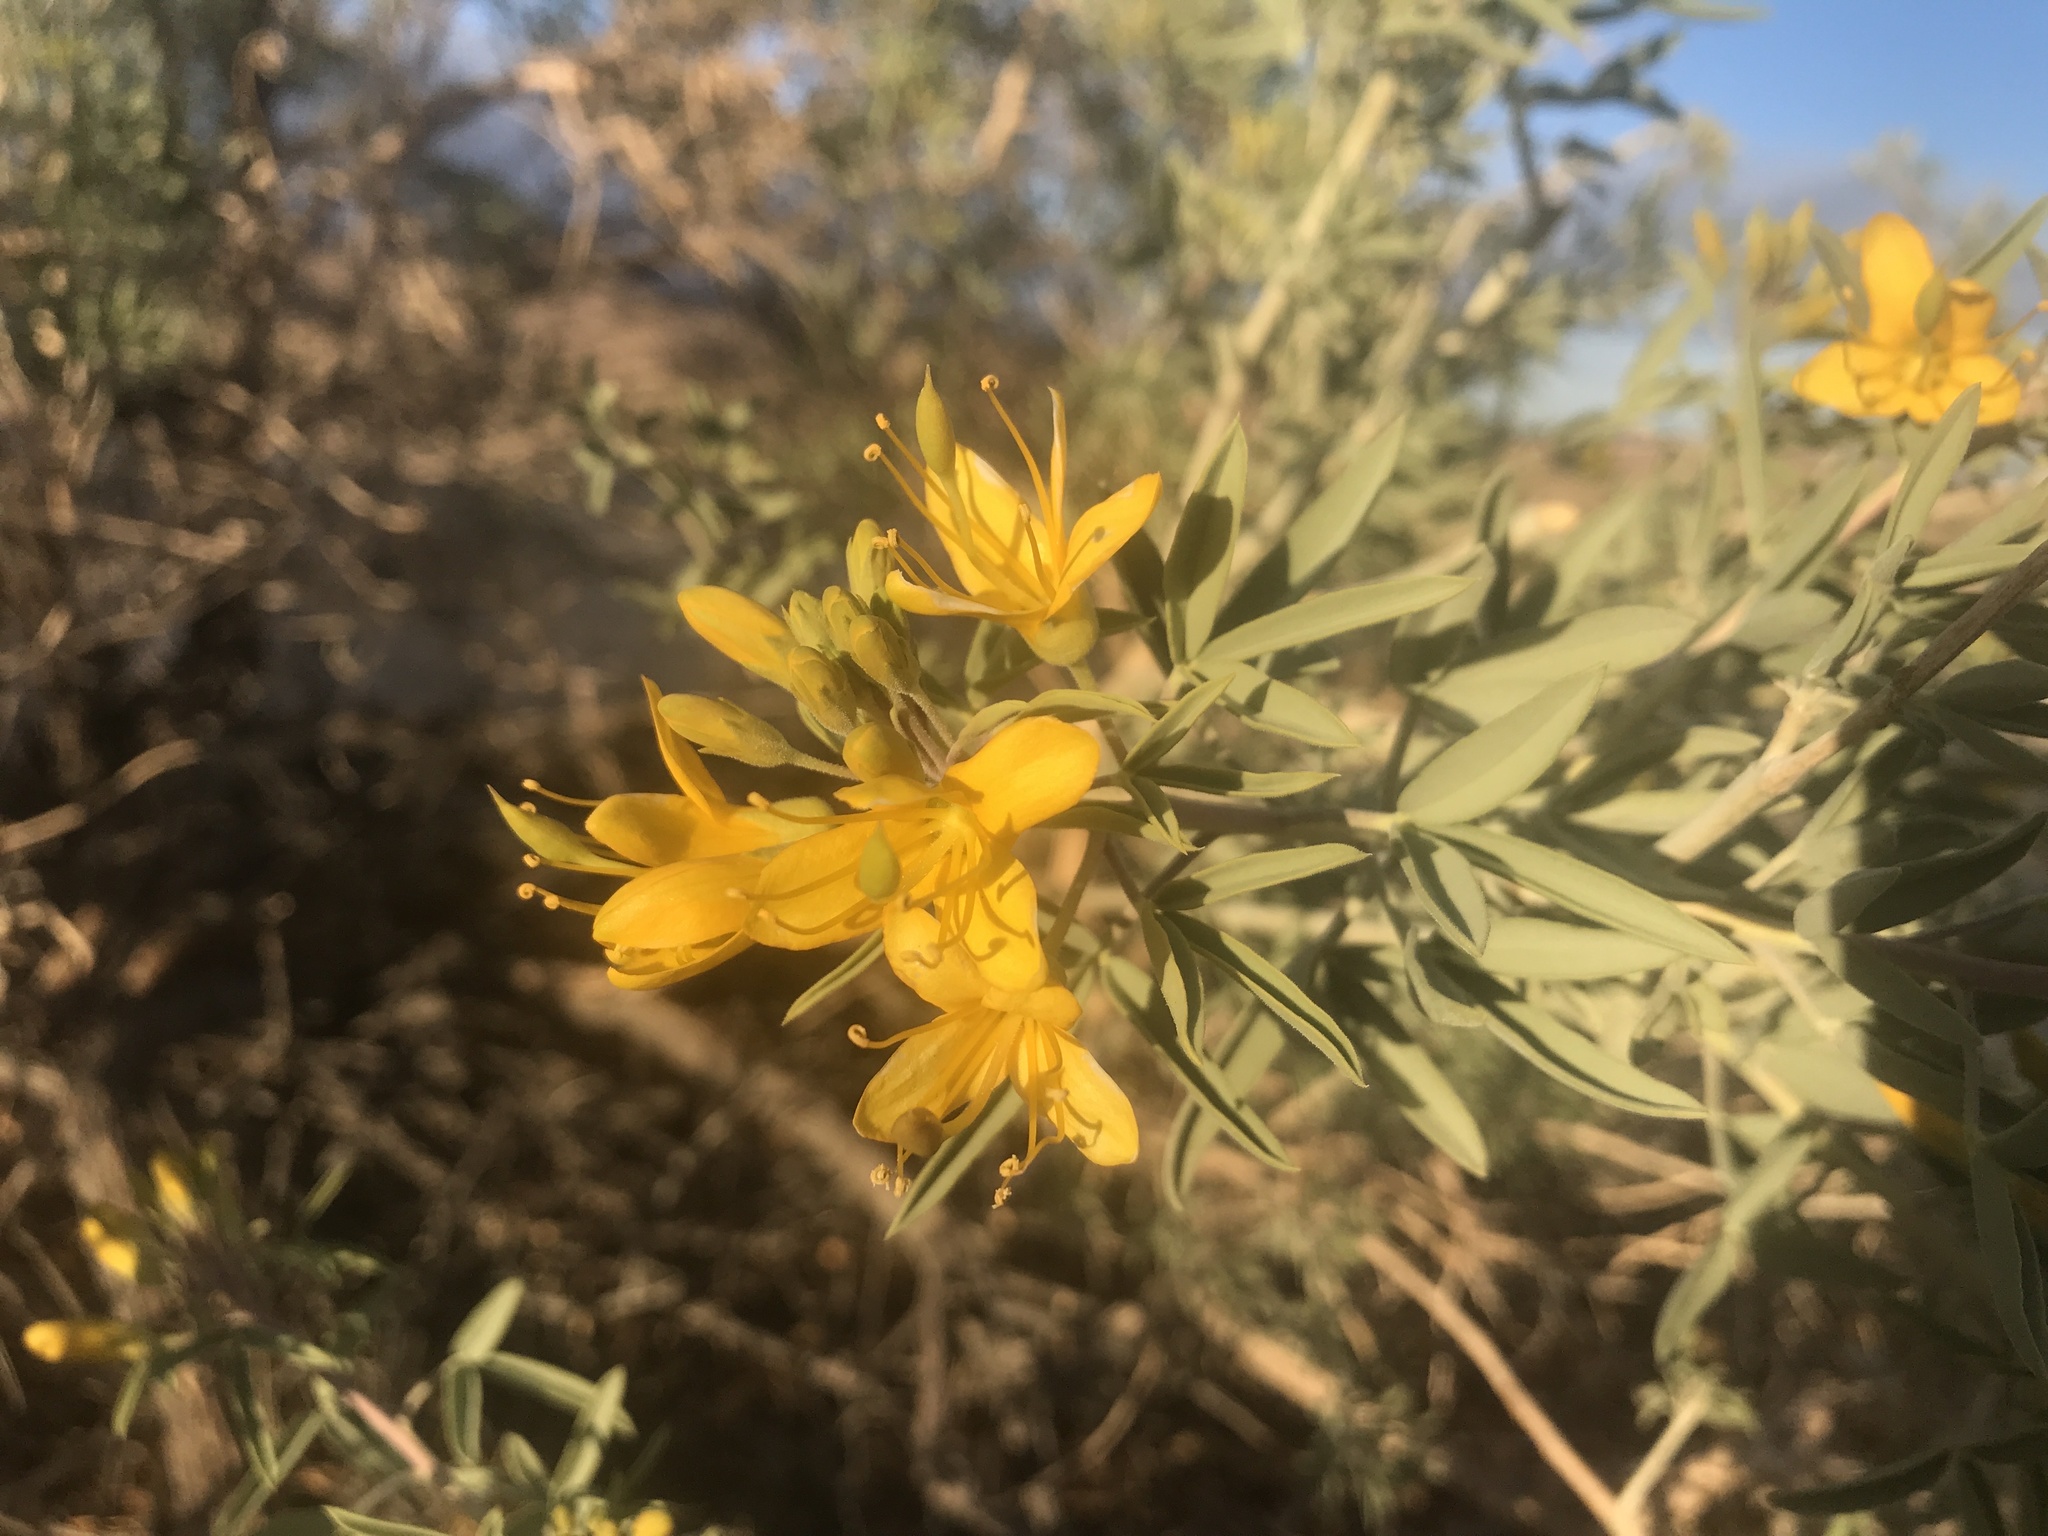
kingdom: Plantae
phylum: Tracheophyta
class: Magnoliopsida
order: Brassicales
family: Cleomaceae
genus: Cleomella
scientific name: Cleomella arborea
